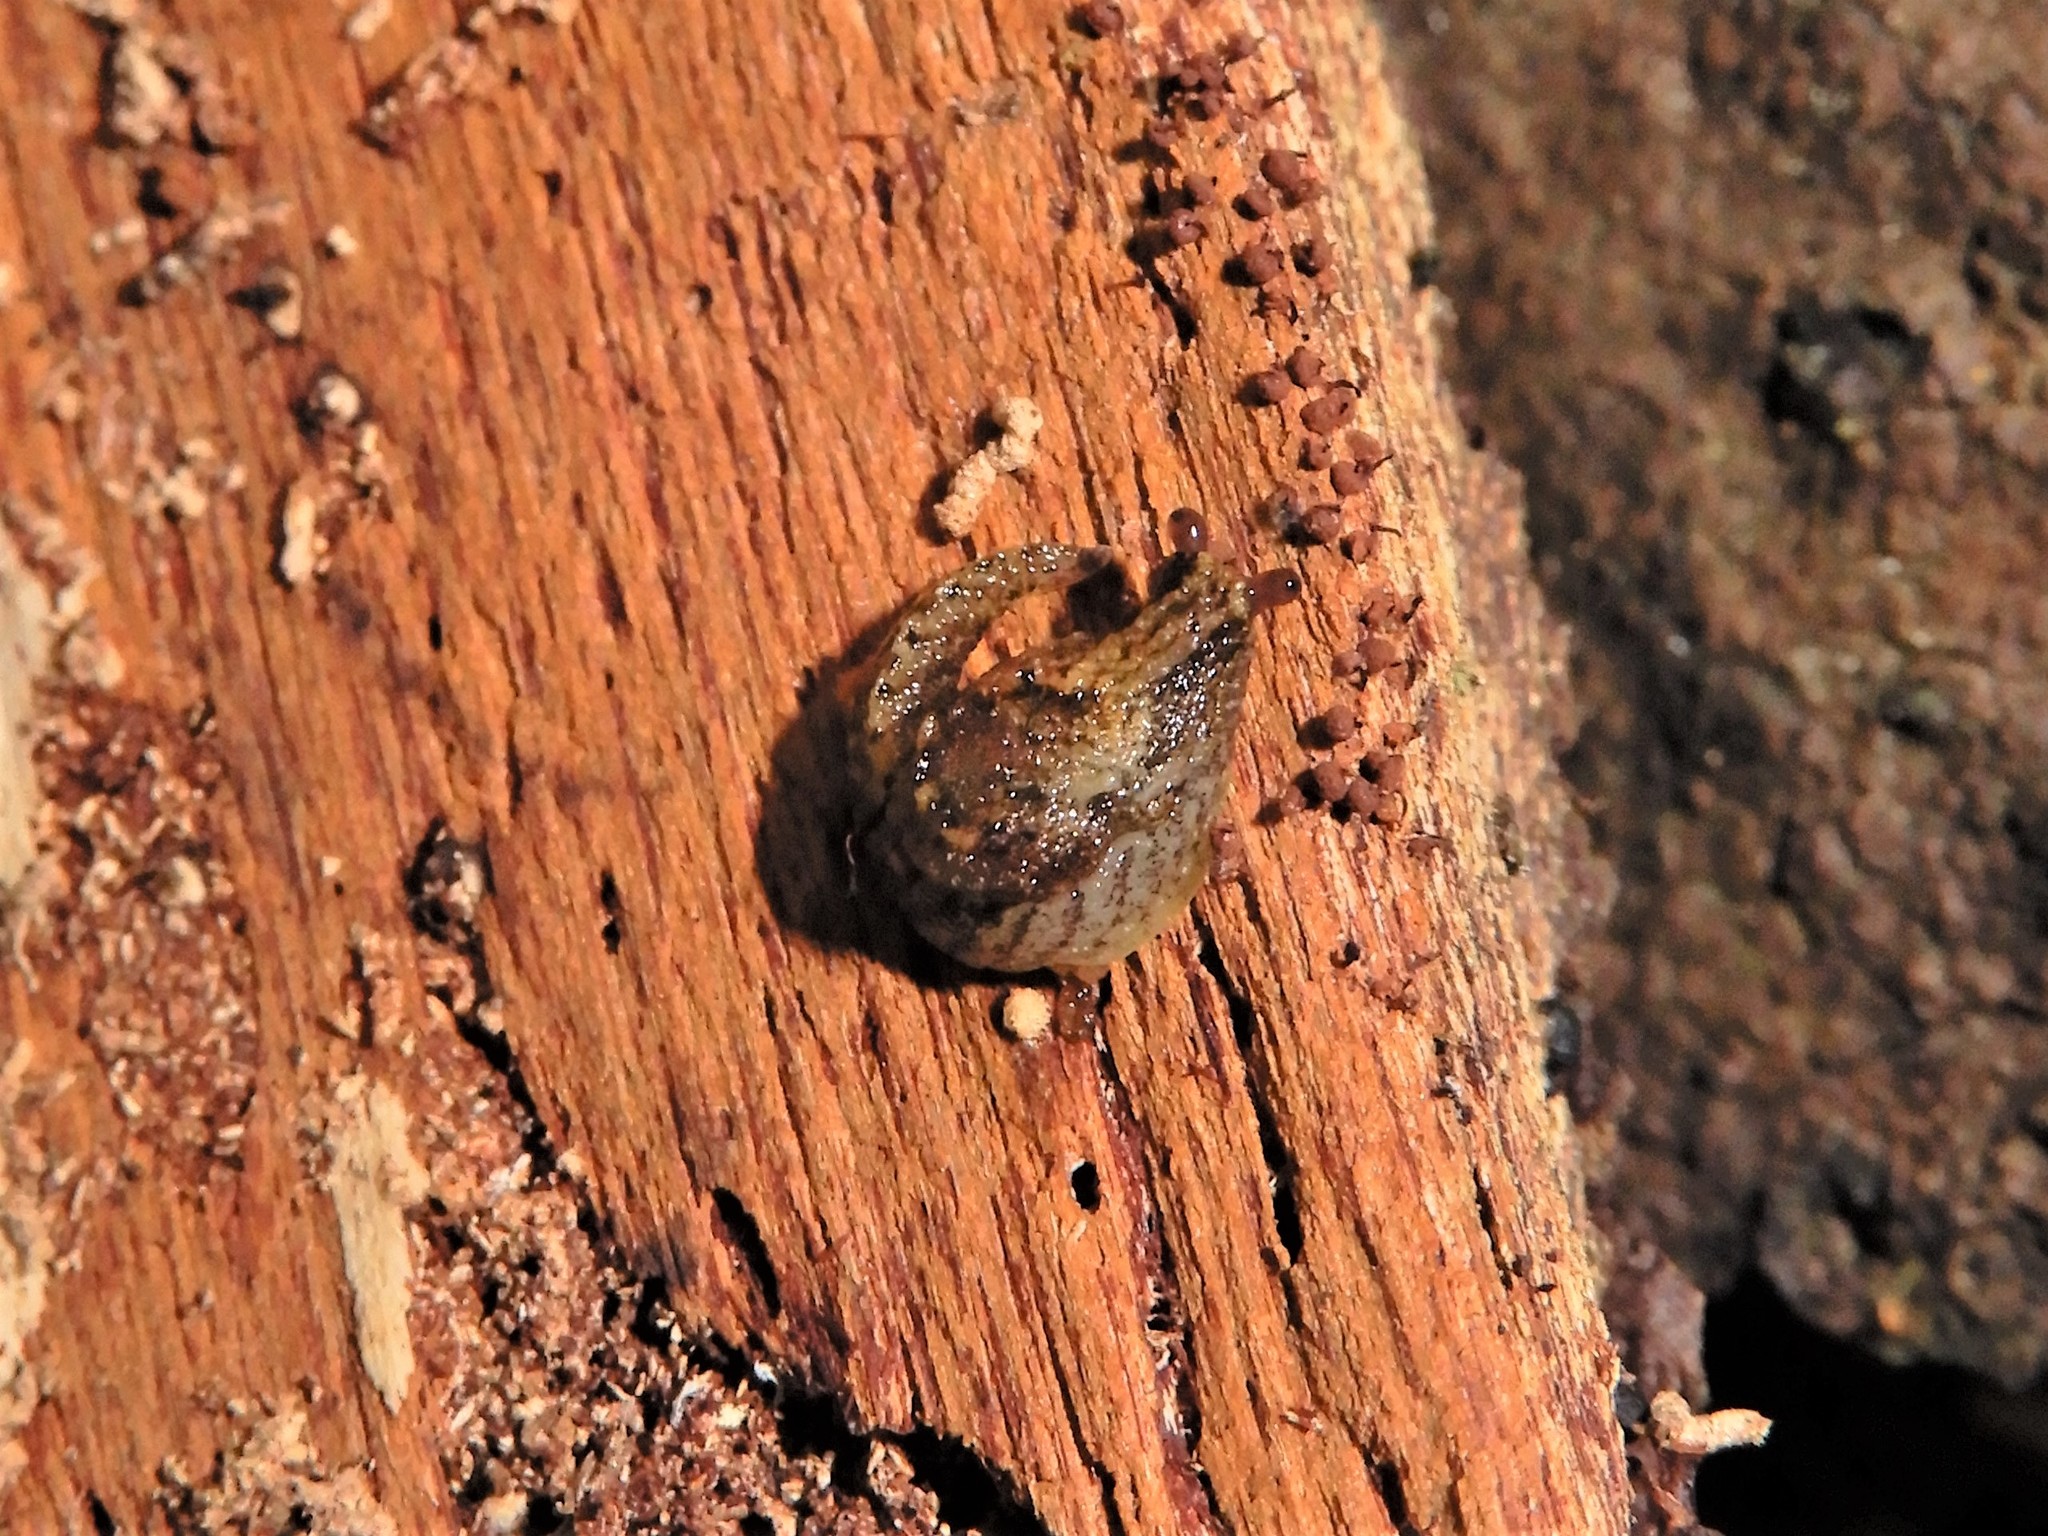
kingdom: Animalia
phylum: Mollusca
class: Gastropoda
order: Stylommatophora
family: Charopidae
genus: Otoconcha
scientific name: Otoconcha dimidiata
